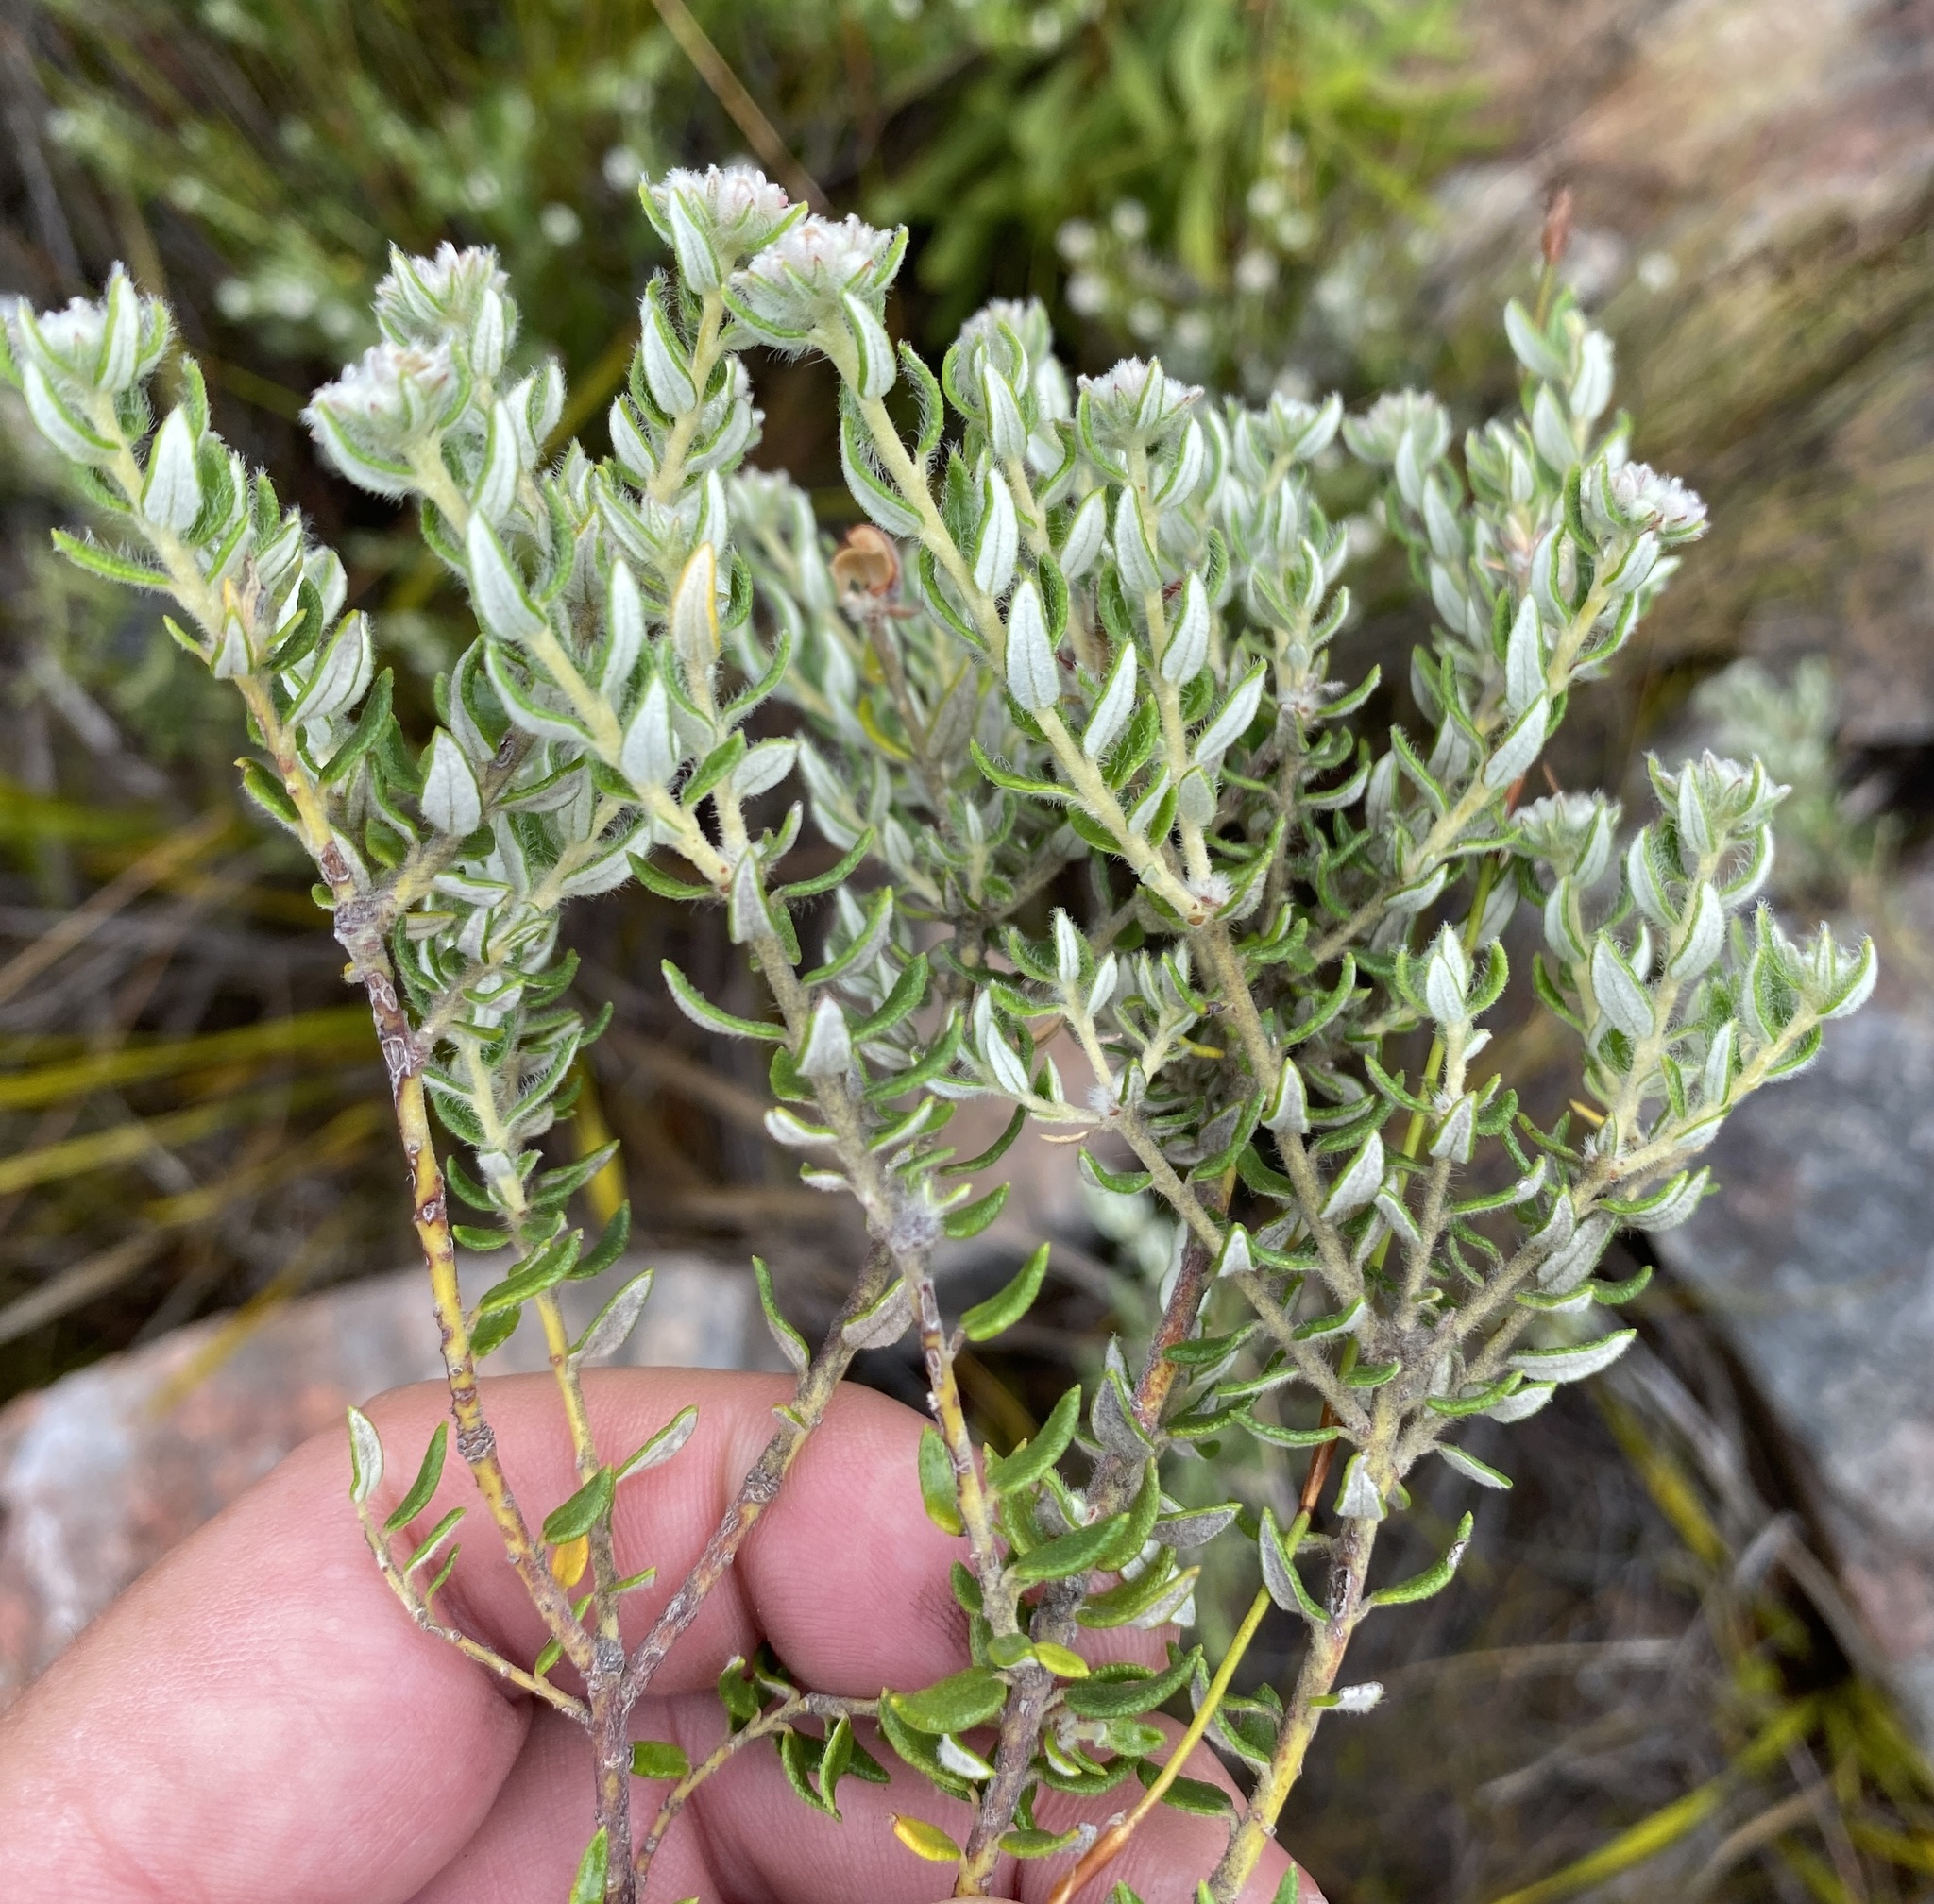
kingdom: Plantae
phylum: Tracheophyta
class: Magnoliopsida
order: Rosales
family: Rhamnaceae
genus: Phylica
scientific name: Phylica ampliata
